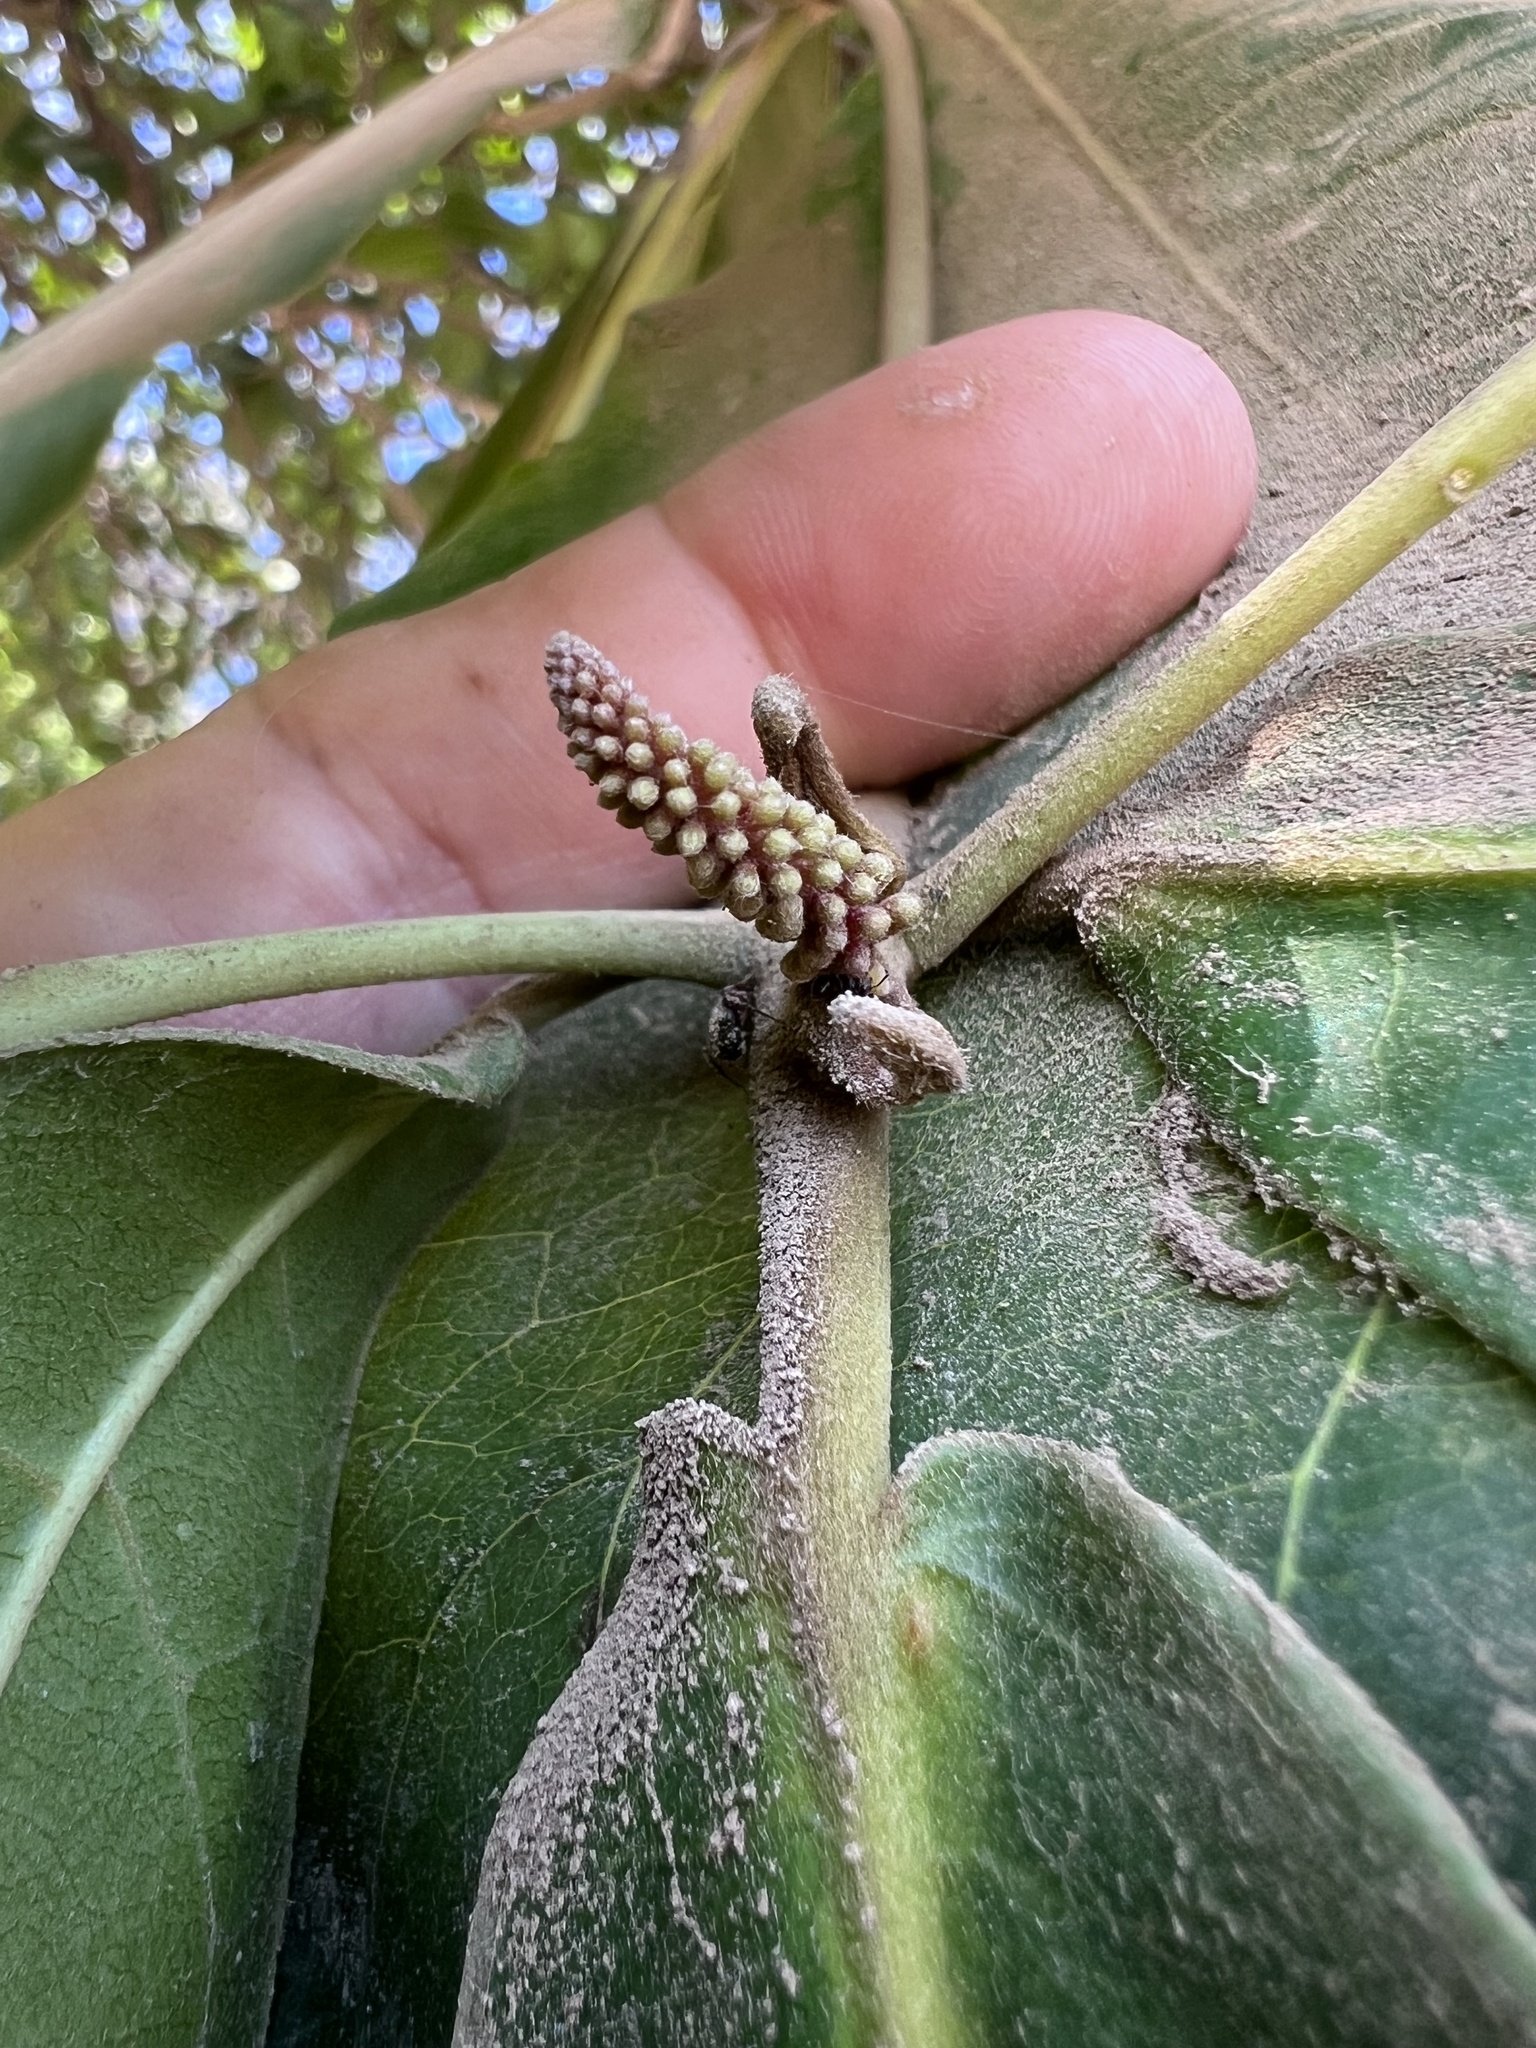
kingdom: Plantae
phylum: Tracheophyta
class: Magnoliopsida
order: Myrtales
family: Combretaceae
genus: Terminalia
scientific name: Terminalia catappa
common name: Tropical almond
